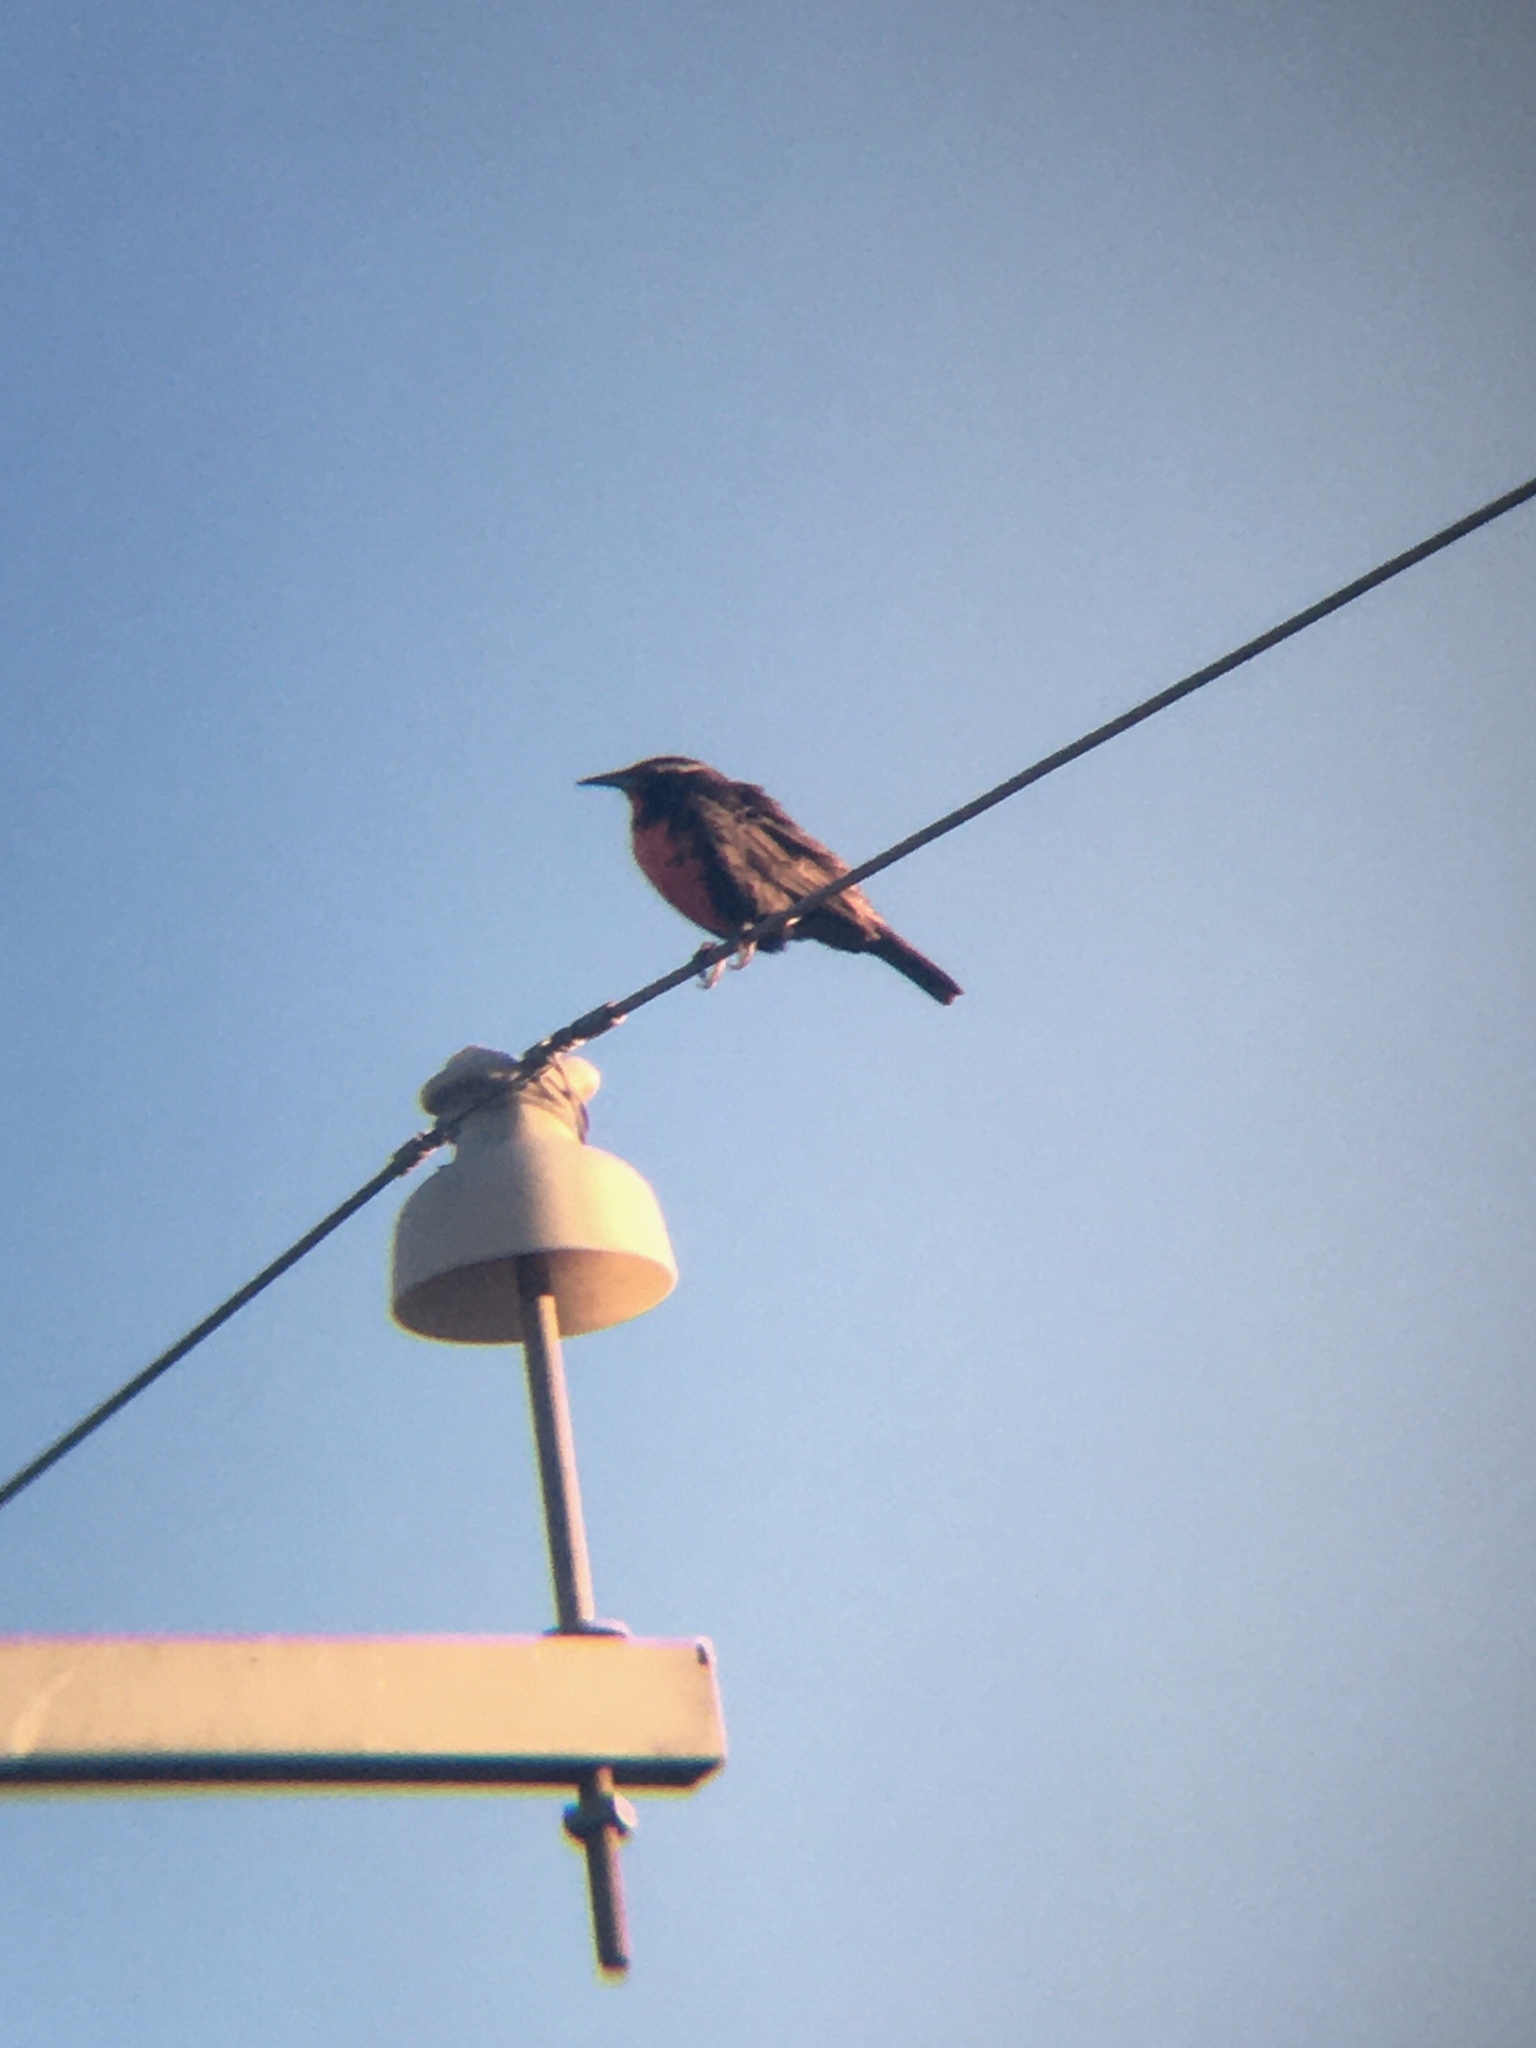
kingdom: Animalia
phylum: Chordata
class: Aves
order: Passeriformes
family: Icteridae
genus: Sturnella
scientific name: Sturnella loyca
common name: Long-tailed meadowlark
